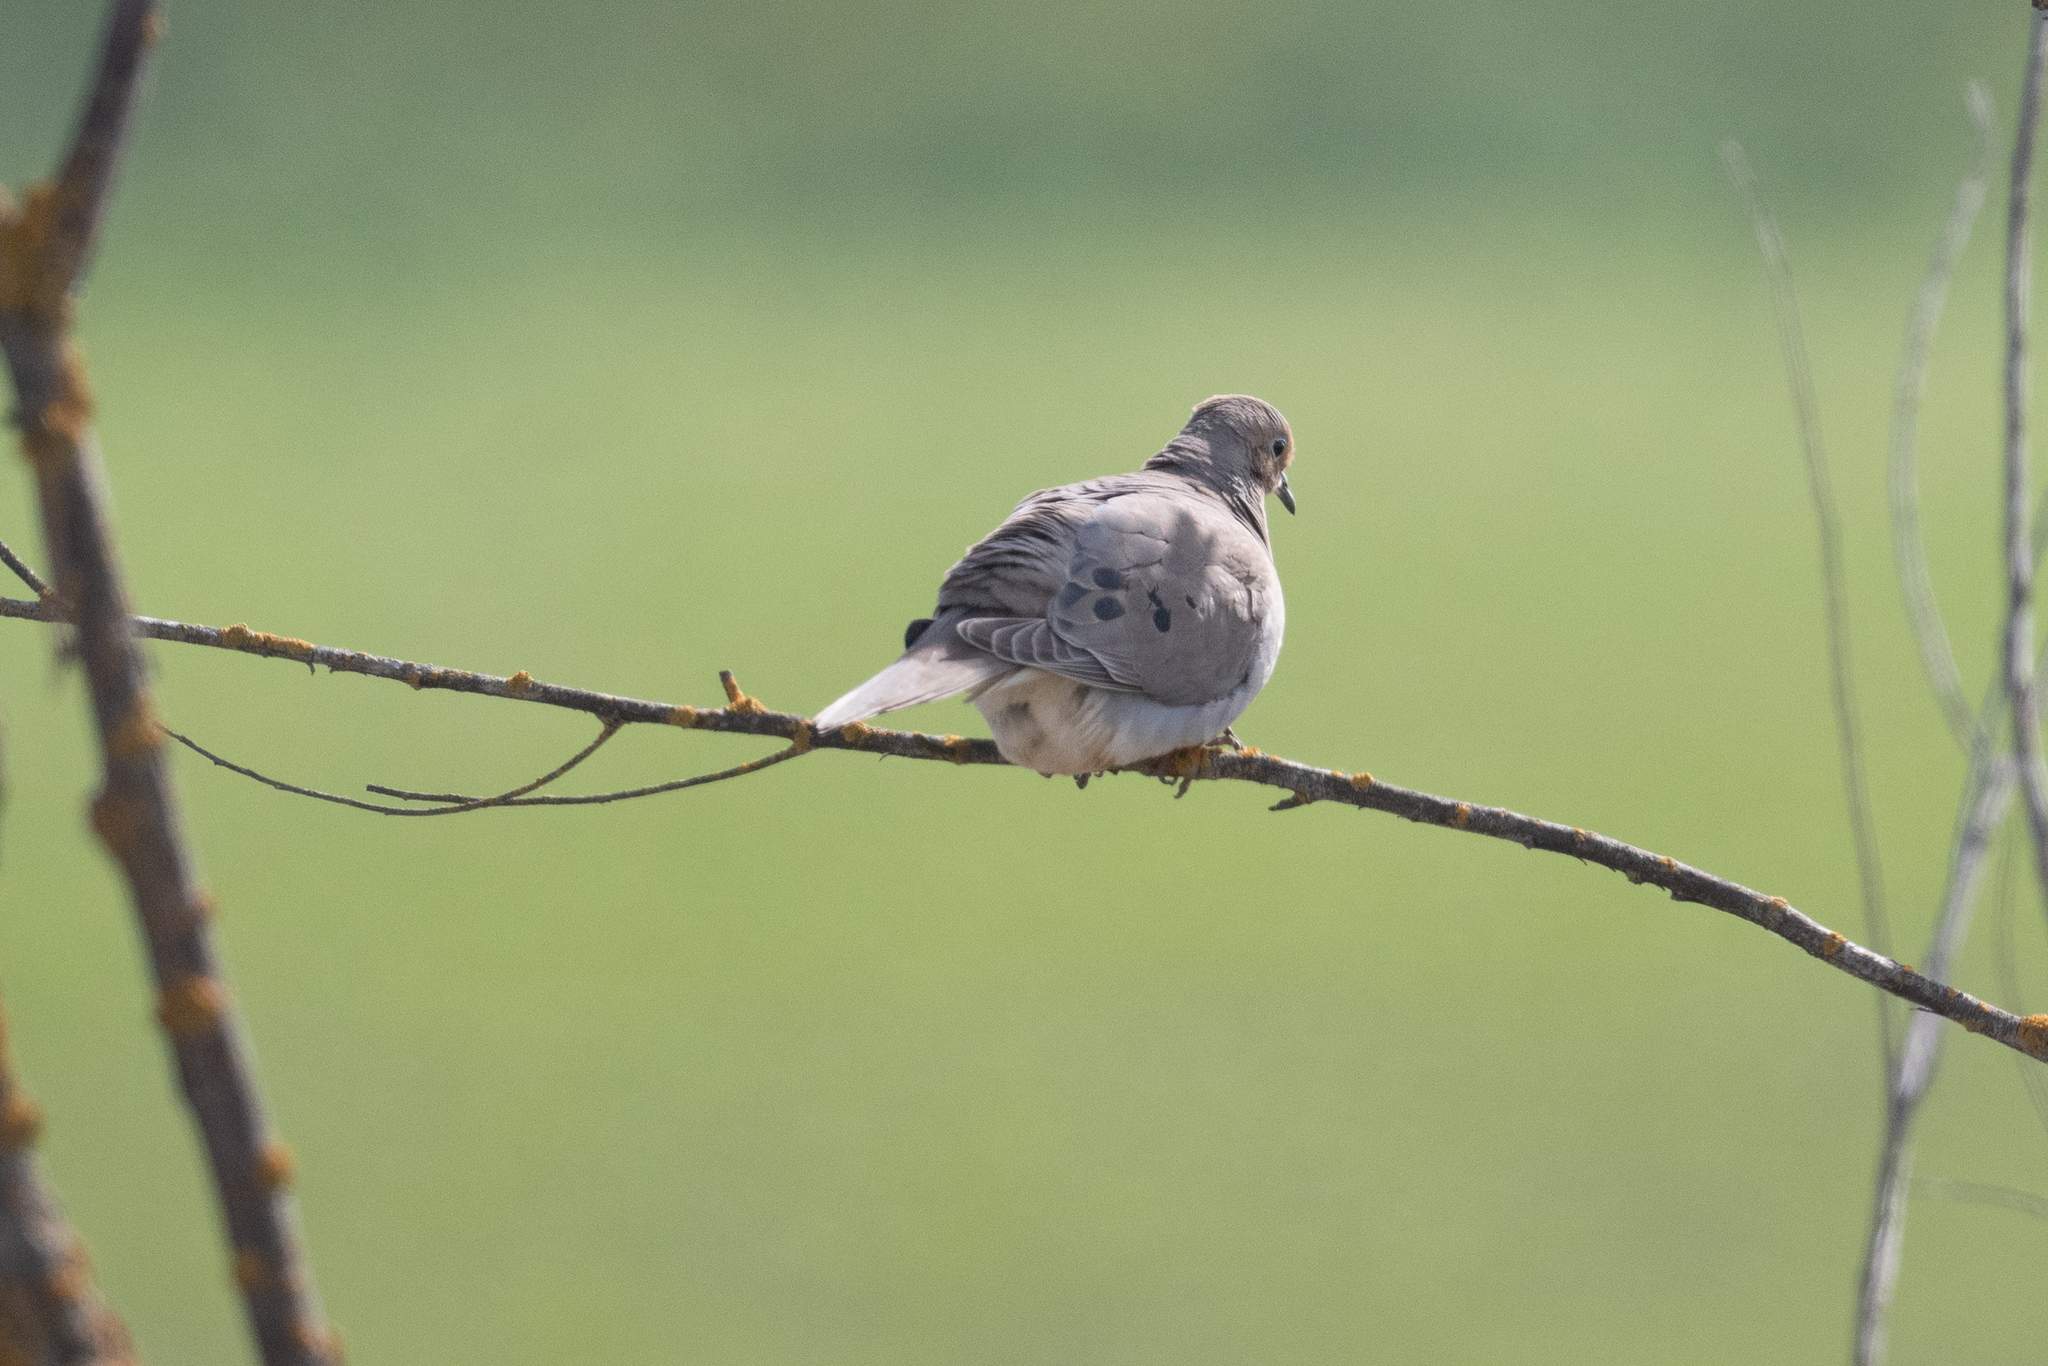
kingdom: Animalia
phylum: Chordata
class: Aves
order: Columbiformes
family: Columbidae
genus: Zenaida
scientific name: Zenaida macroura
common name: Mourning dove
